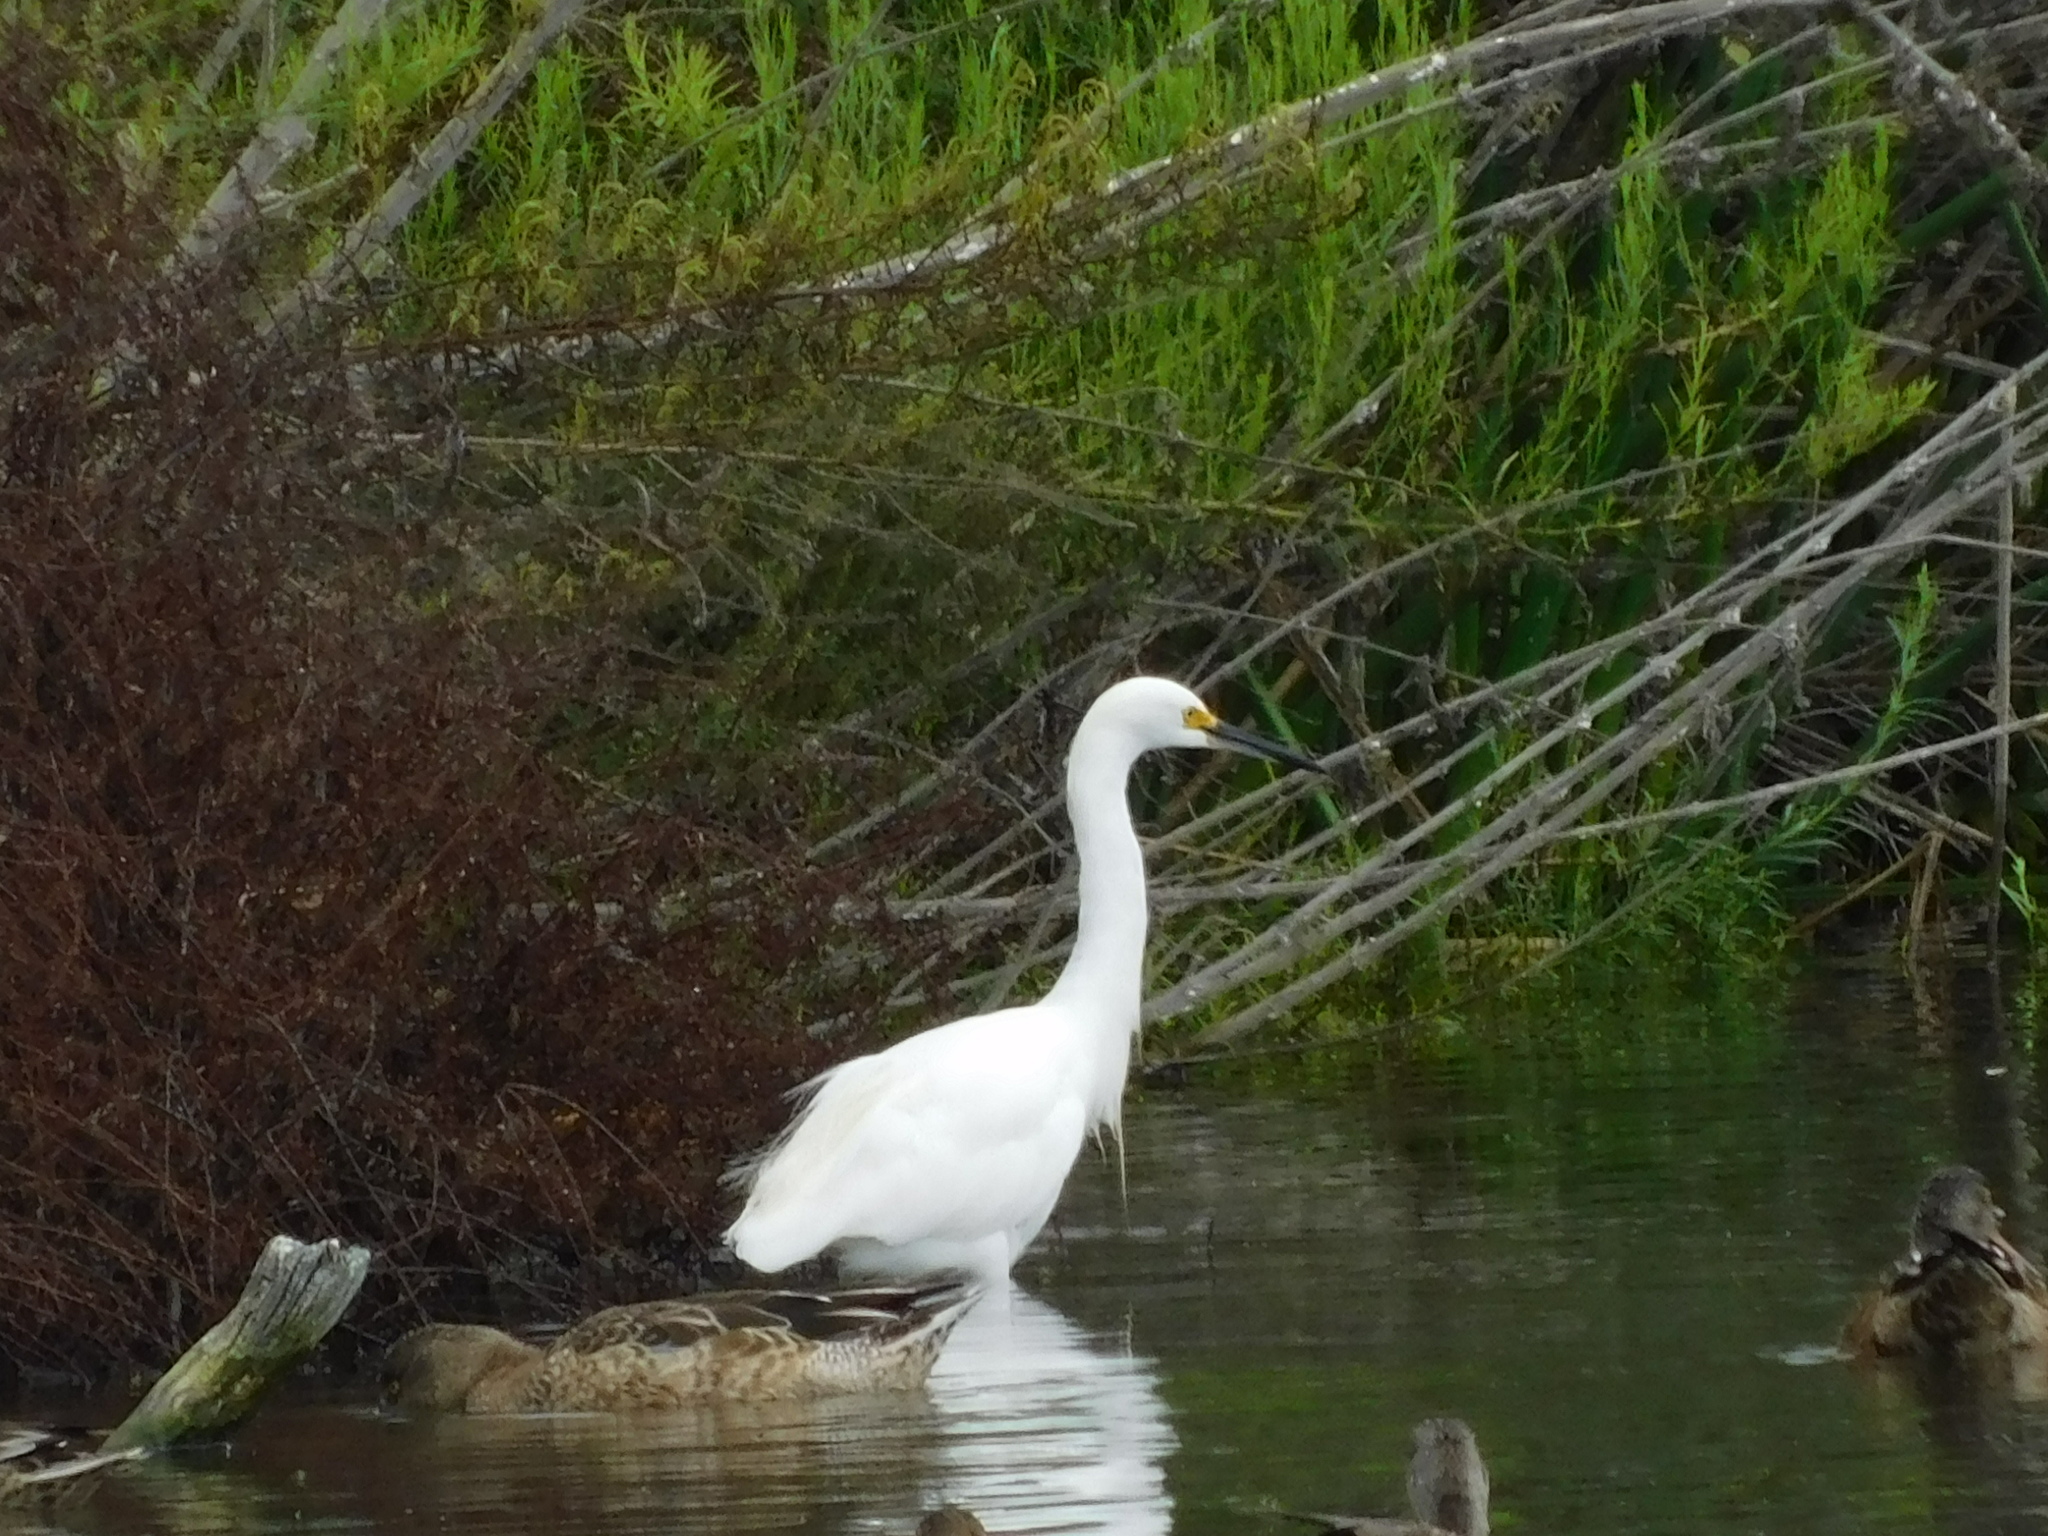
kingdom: Animalia
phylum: Chordata
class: Aves
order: Pelecaniformes
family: Ardeidae
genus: Egretta
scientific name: Egretta thula
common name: Snowy egret
